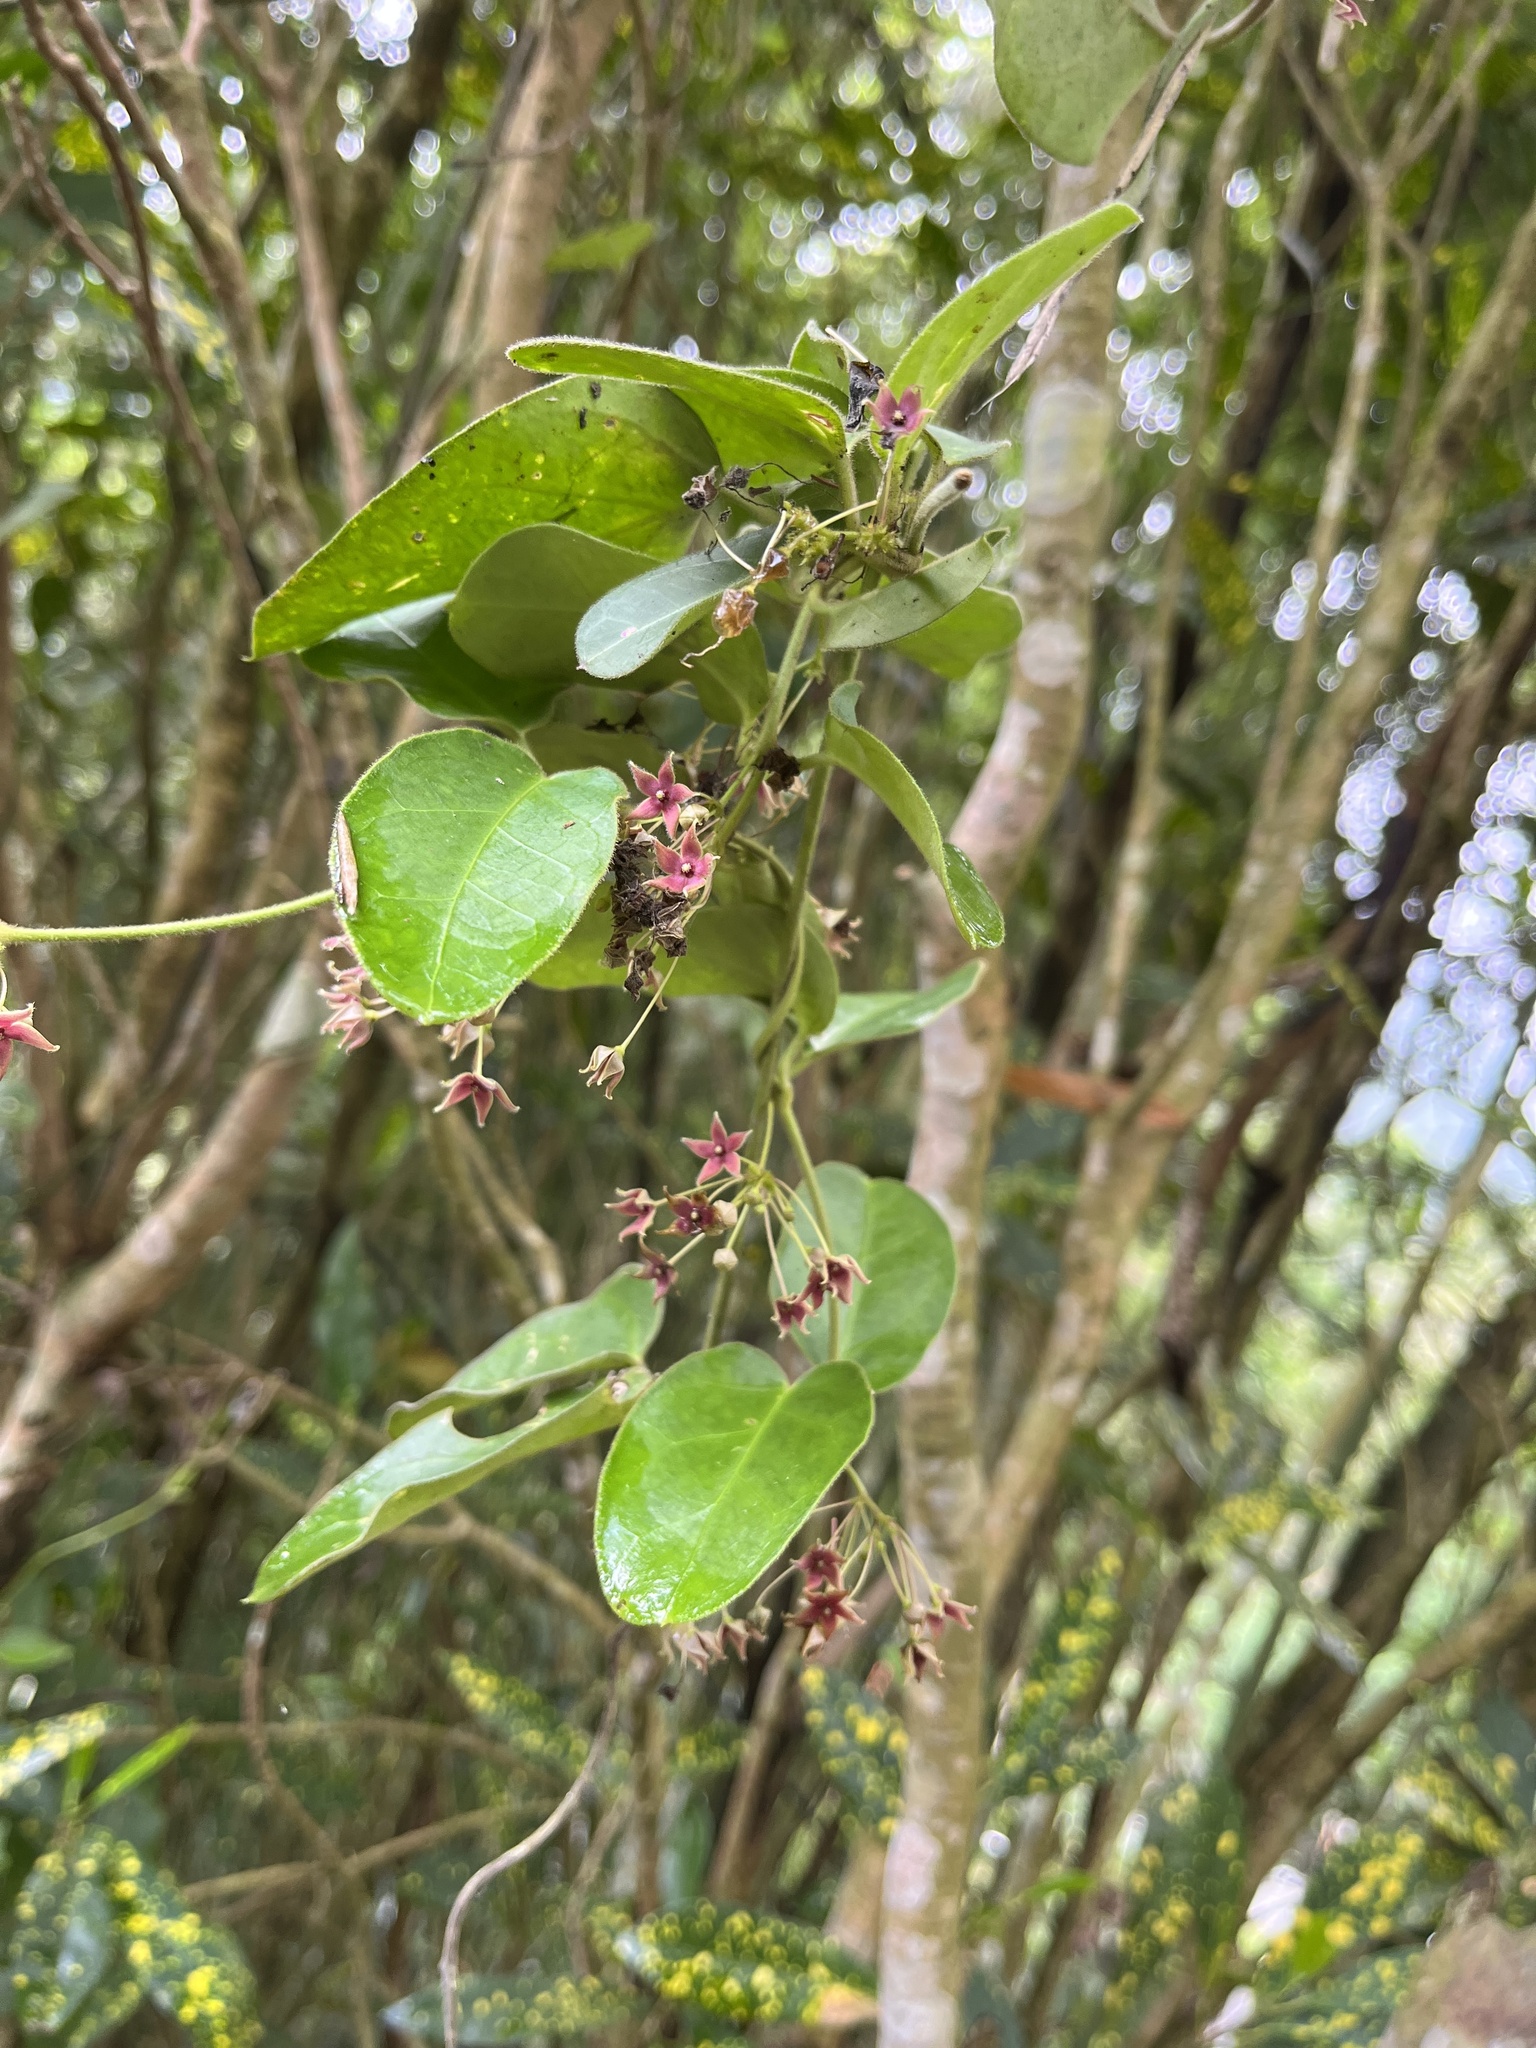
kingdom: Plantae
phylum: Tracheophyta
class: Magnoliopsida
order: Gentianales
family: Apocynaceae
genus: Vincetoxicum
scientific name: Vincetoxicum hirsutum
